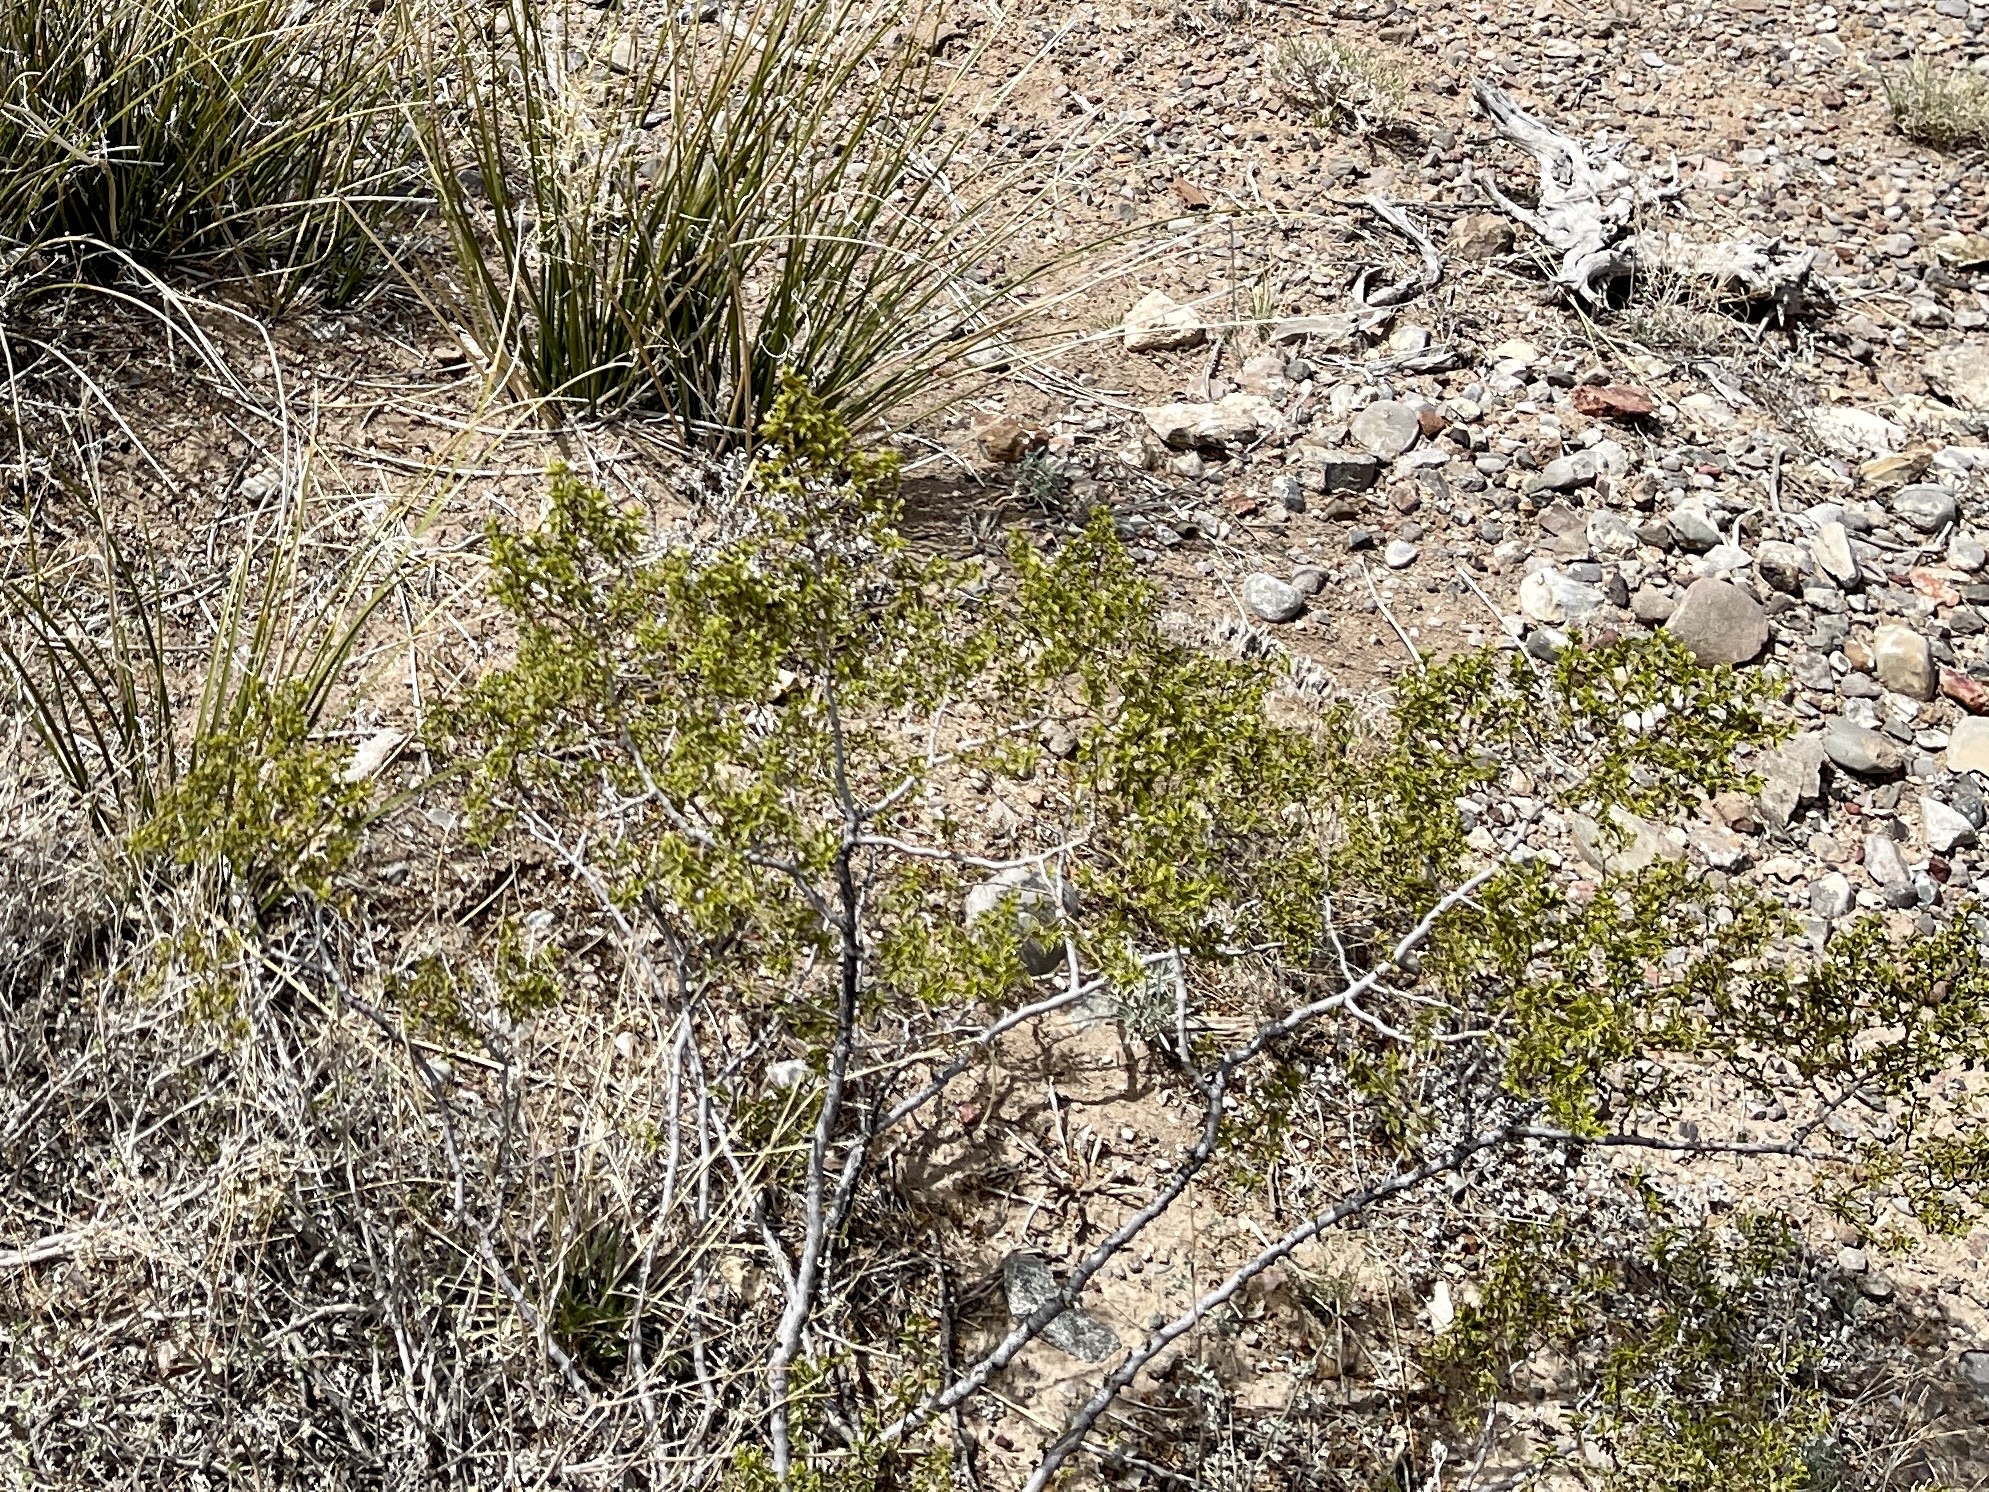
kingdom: Plantae
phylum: Tracheophyta
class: Magnoliopsida
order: Zygophyllales
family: Zygophyllaceae
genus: Larrea
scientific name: Larrea tridentata
